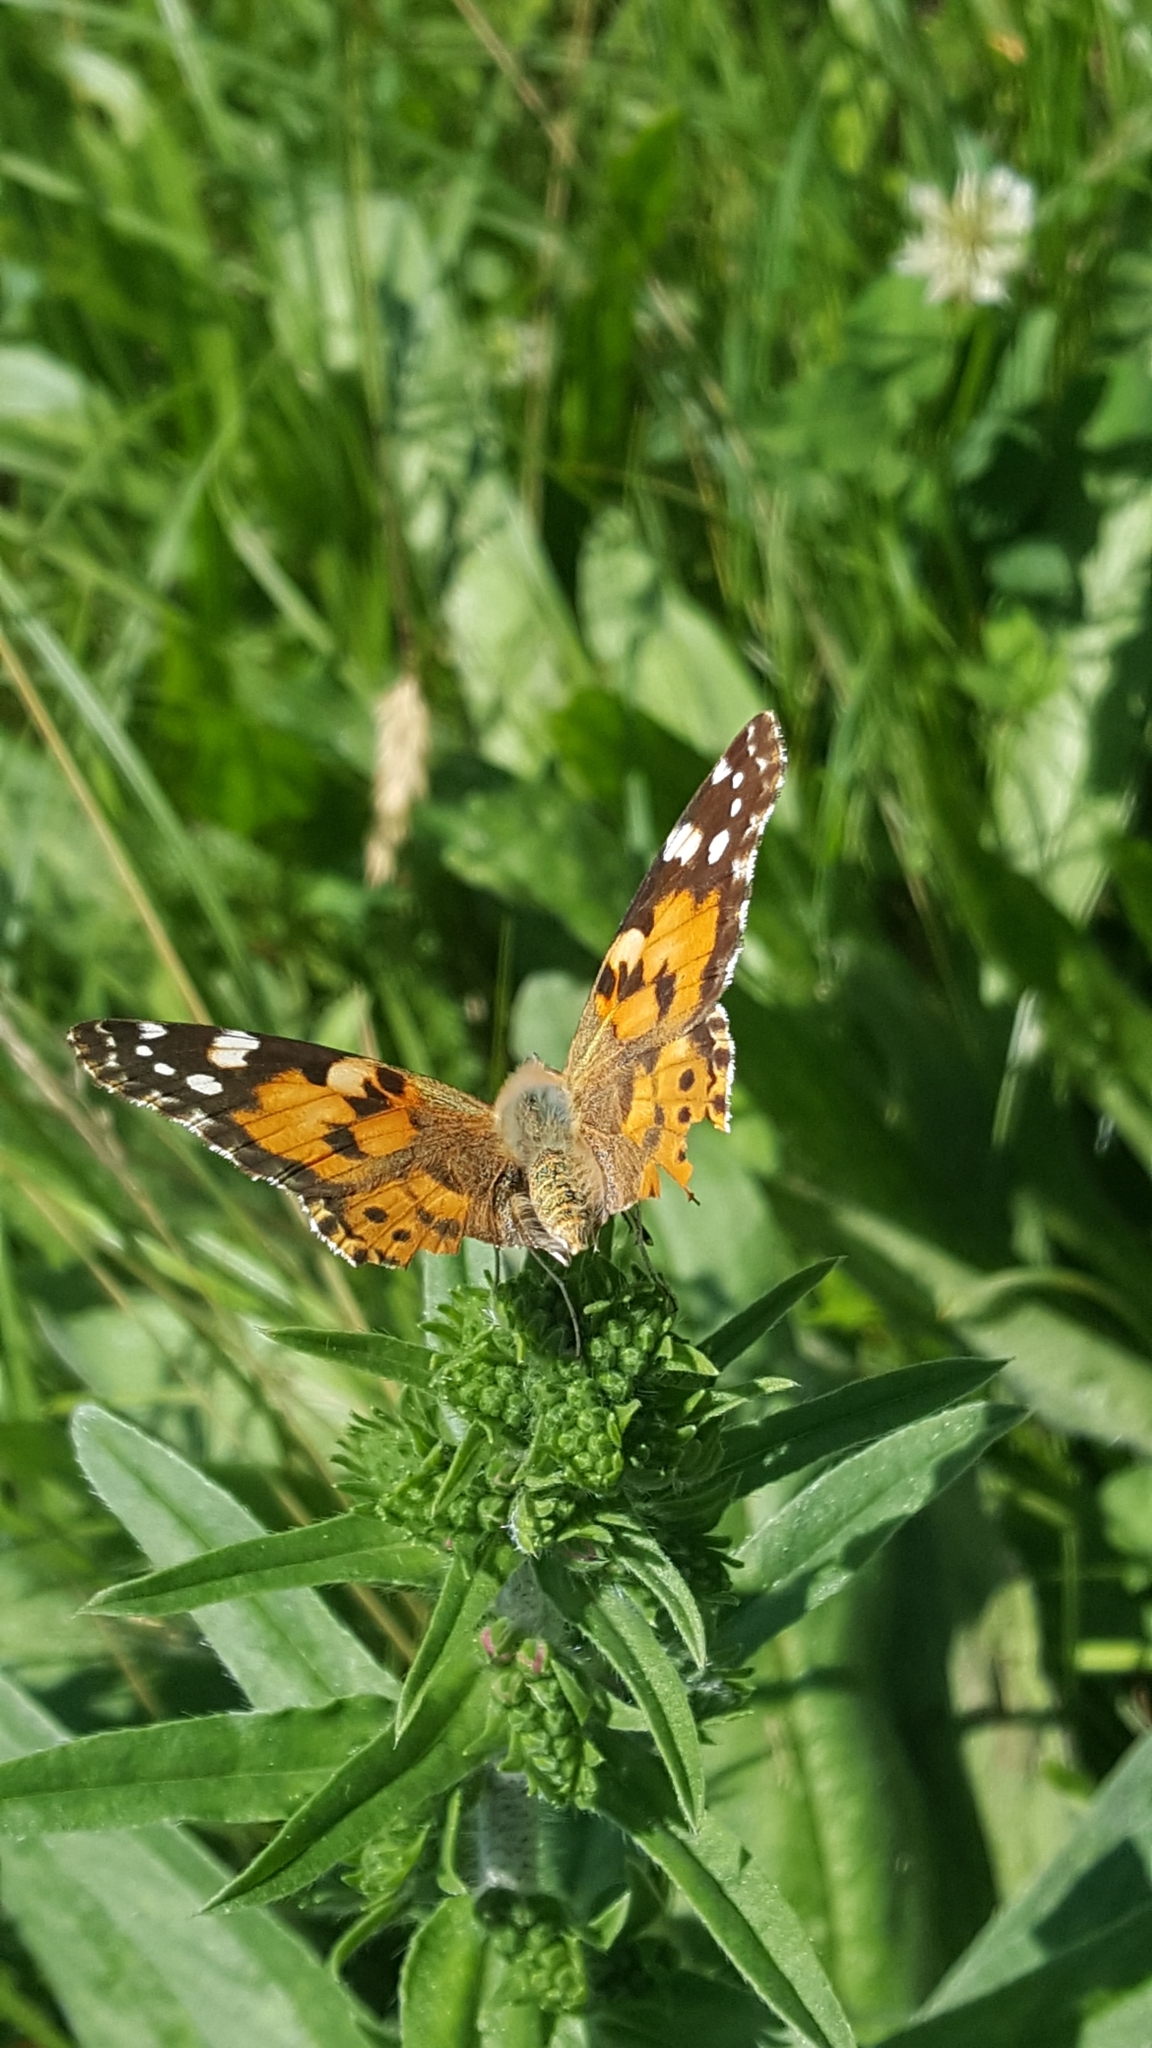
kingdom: Animalia
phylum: Arthropoda
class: Insecta
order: Lepidoptera
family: Nymphalidae
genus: Vanessa
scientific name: Vanessa cardui
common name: Painted lady
